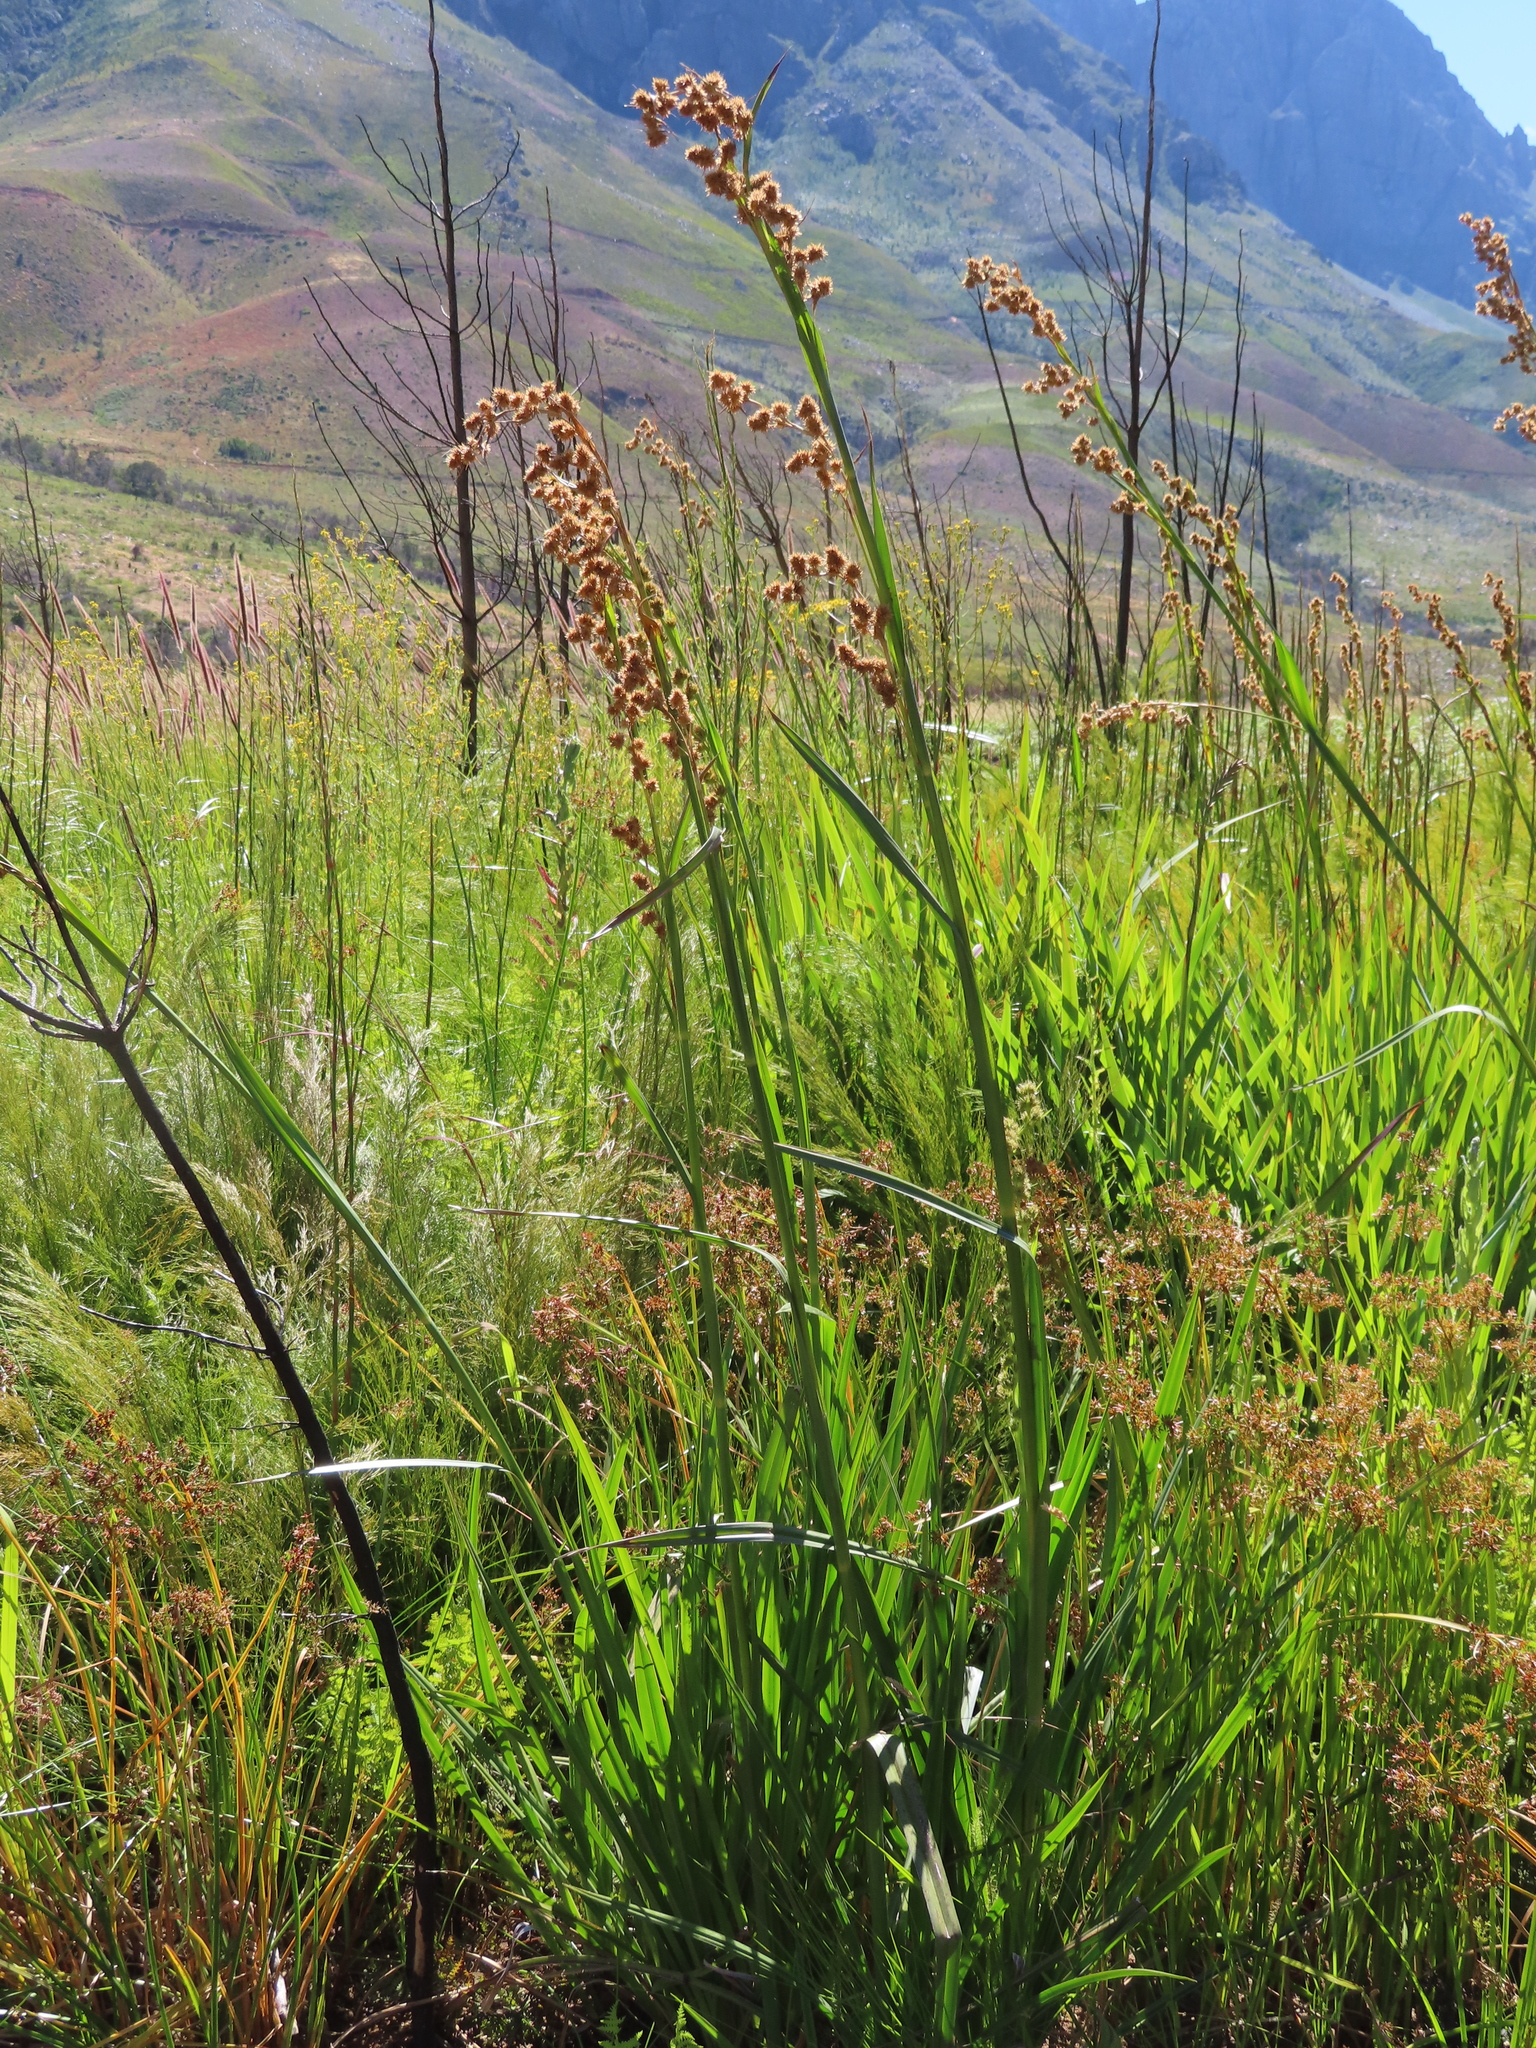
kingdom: Plantae
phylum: Tracheophyta
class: Liliopsida
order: Poales
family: Cyperaceae
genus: Carpha
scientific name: Carpha glomerata
